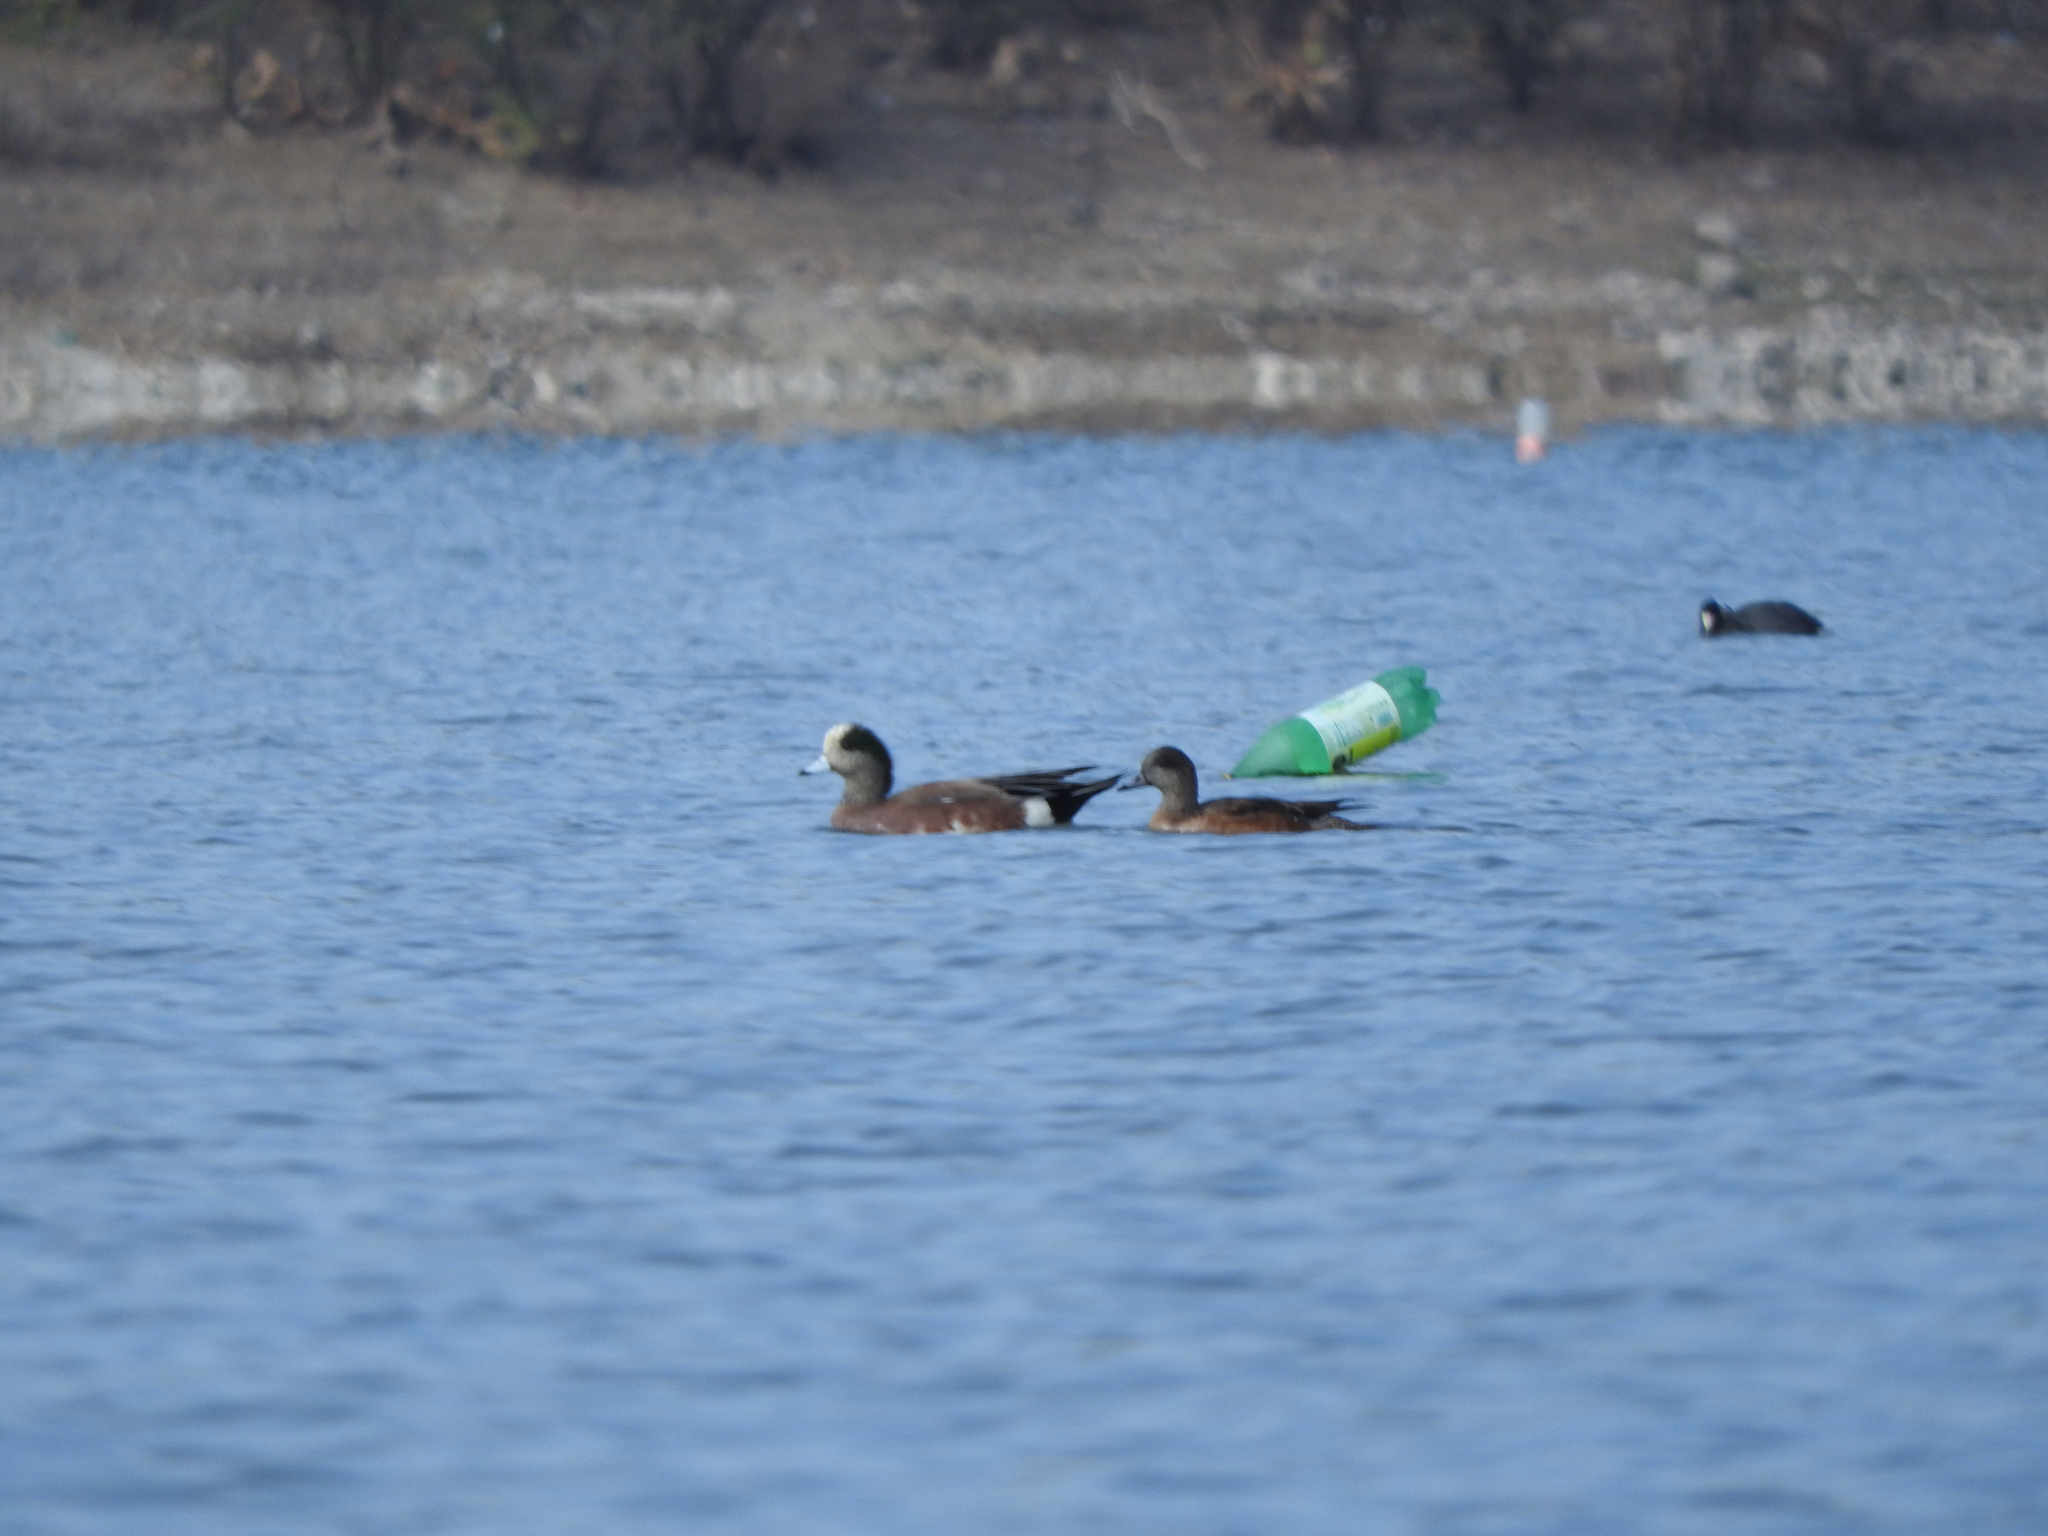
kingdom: Animalia
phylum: Chordata
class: Aves
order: Anseriformes
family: Anatidae
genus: Mareca
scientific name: Mareca americana
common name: American wigeon
